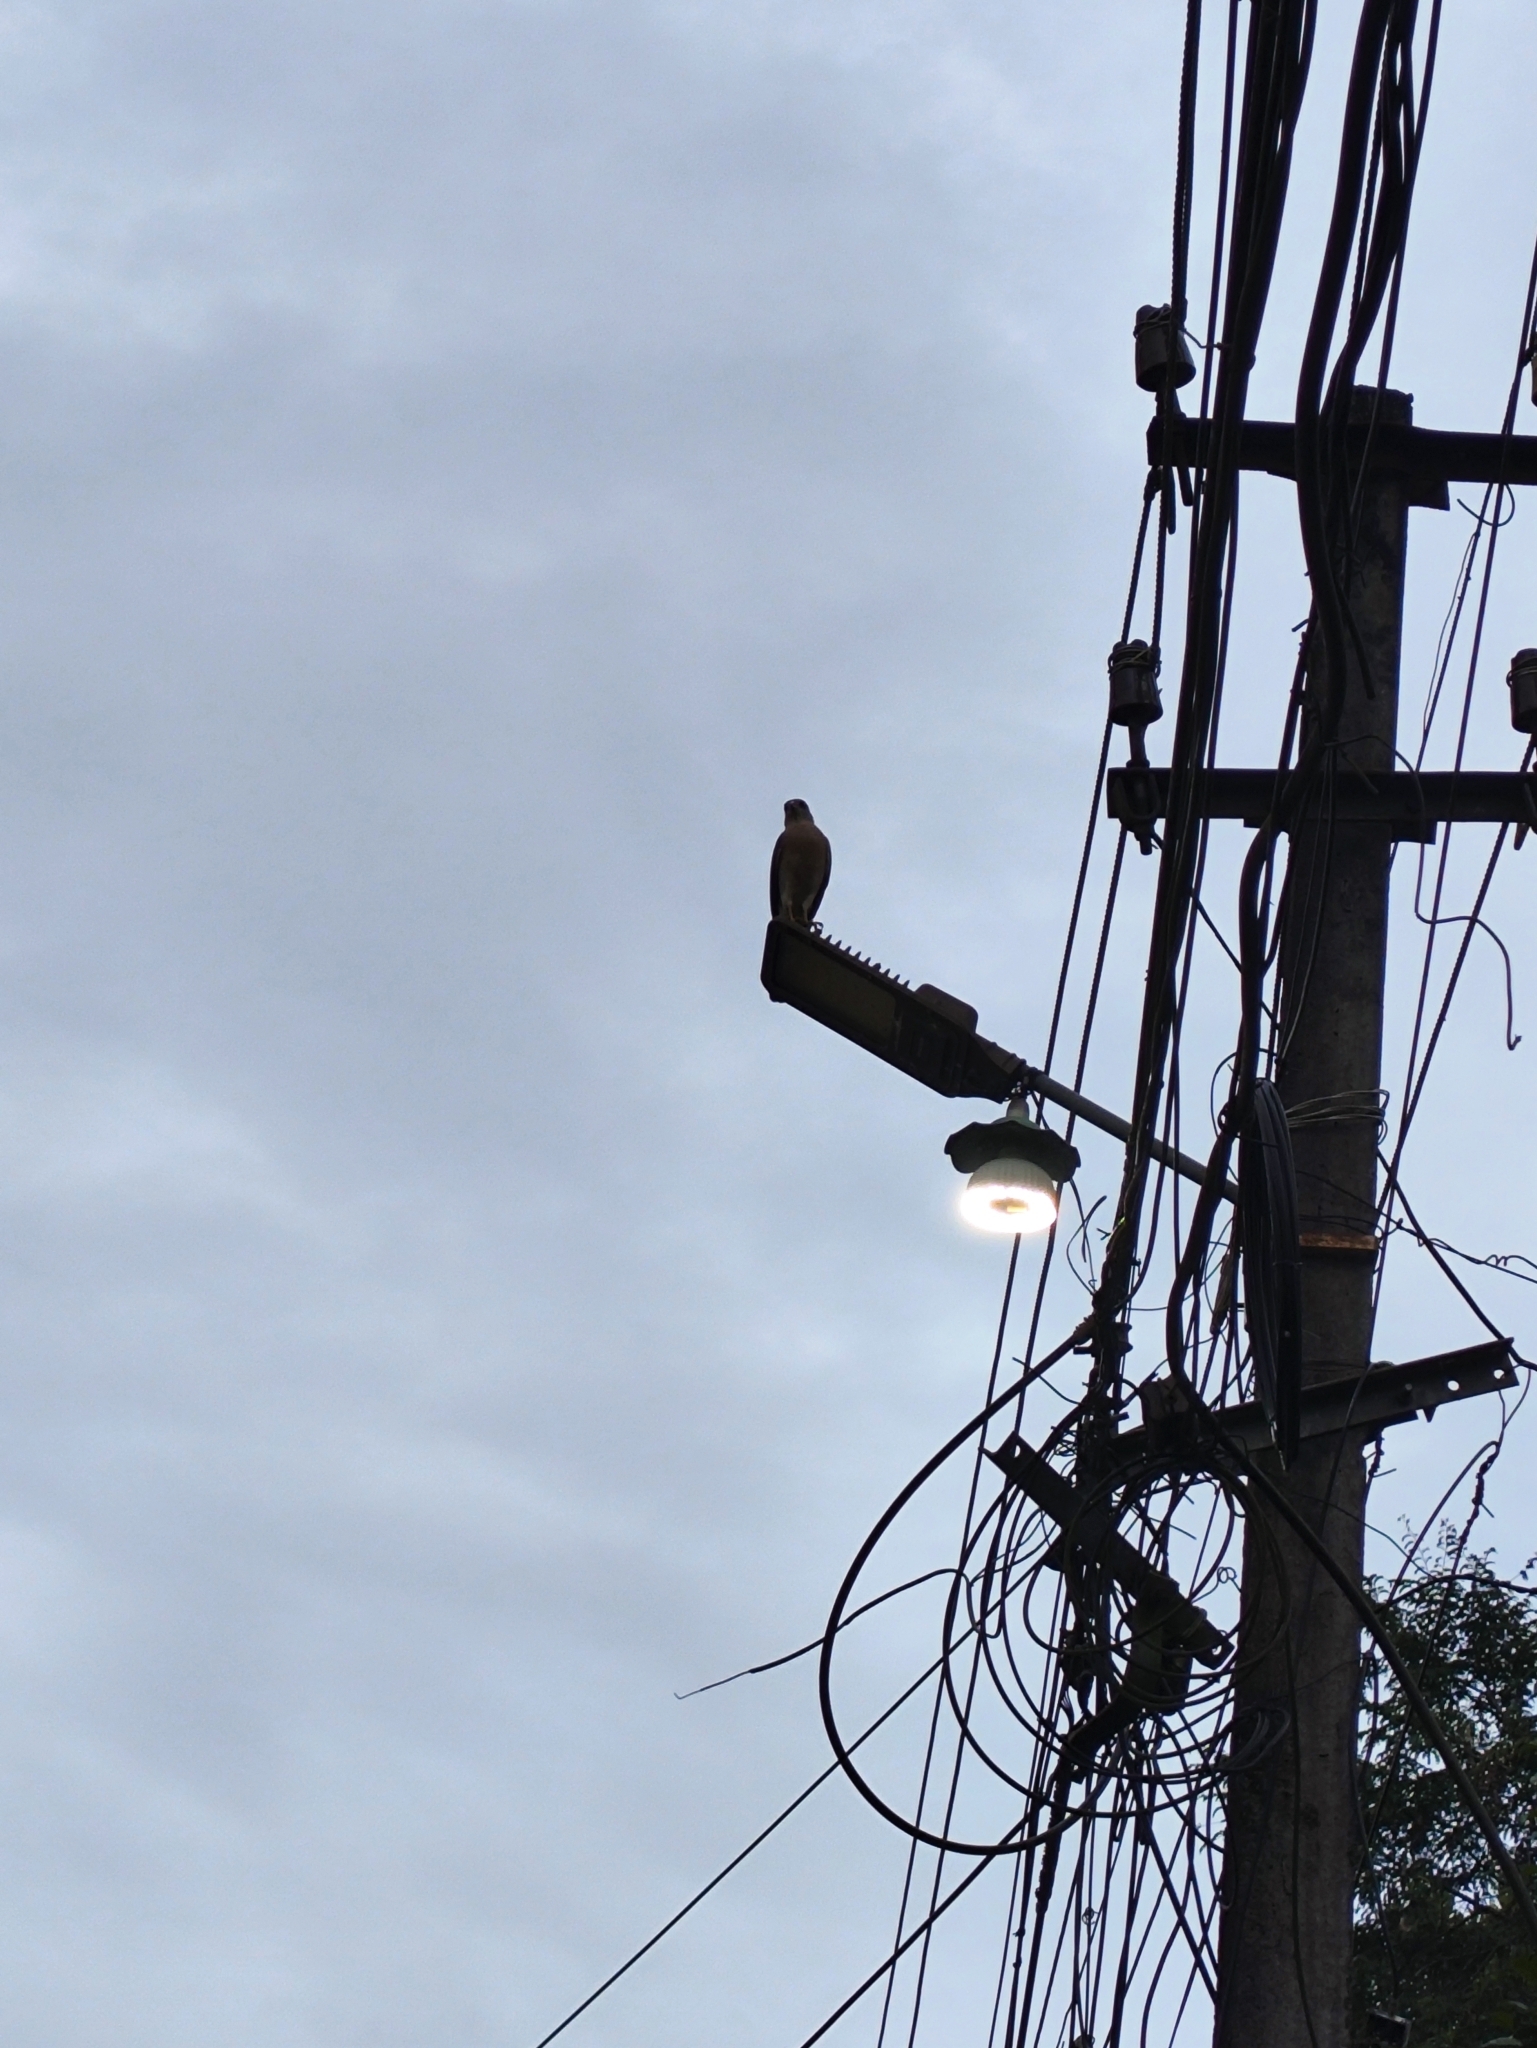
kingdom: Animalia
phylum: Chordata
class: Aves
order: Accipitriformes
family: Accipitridae
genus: Accipiter
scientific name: Accipiter badius
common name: Shikra
